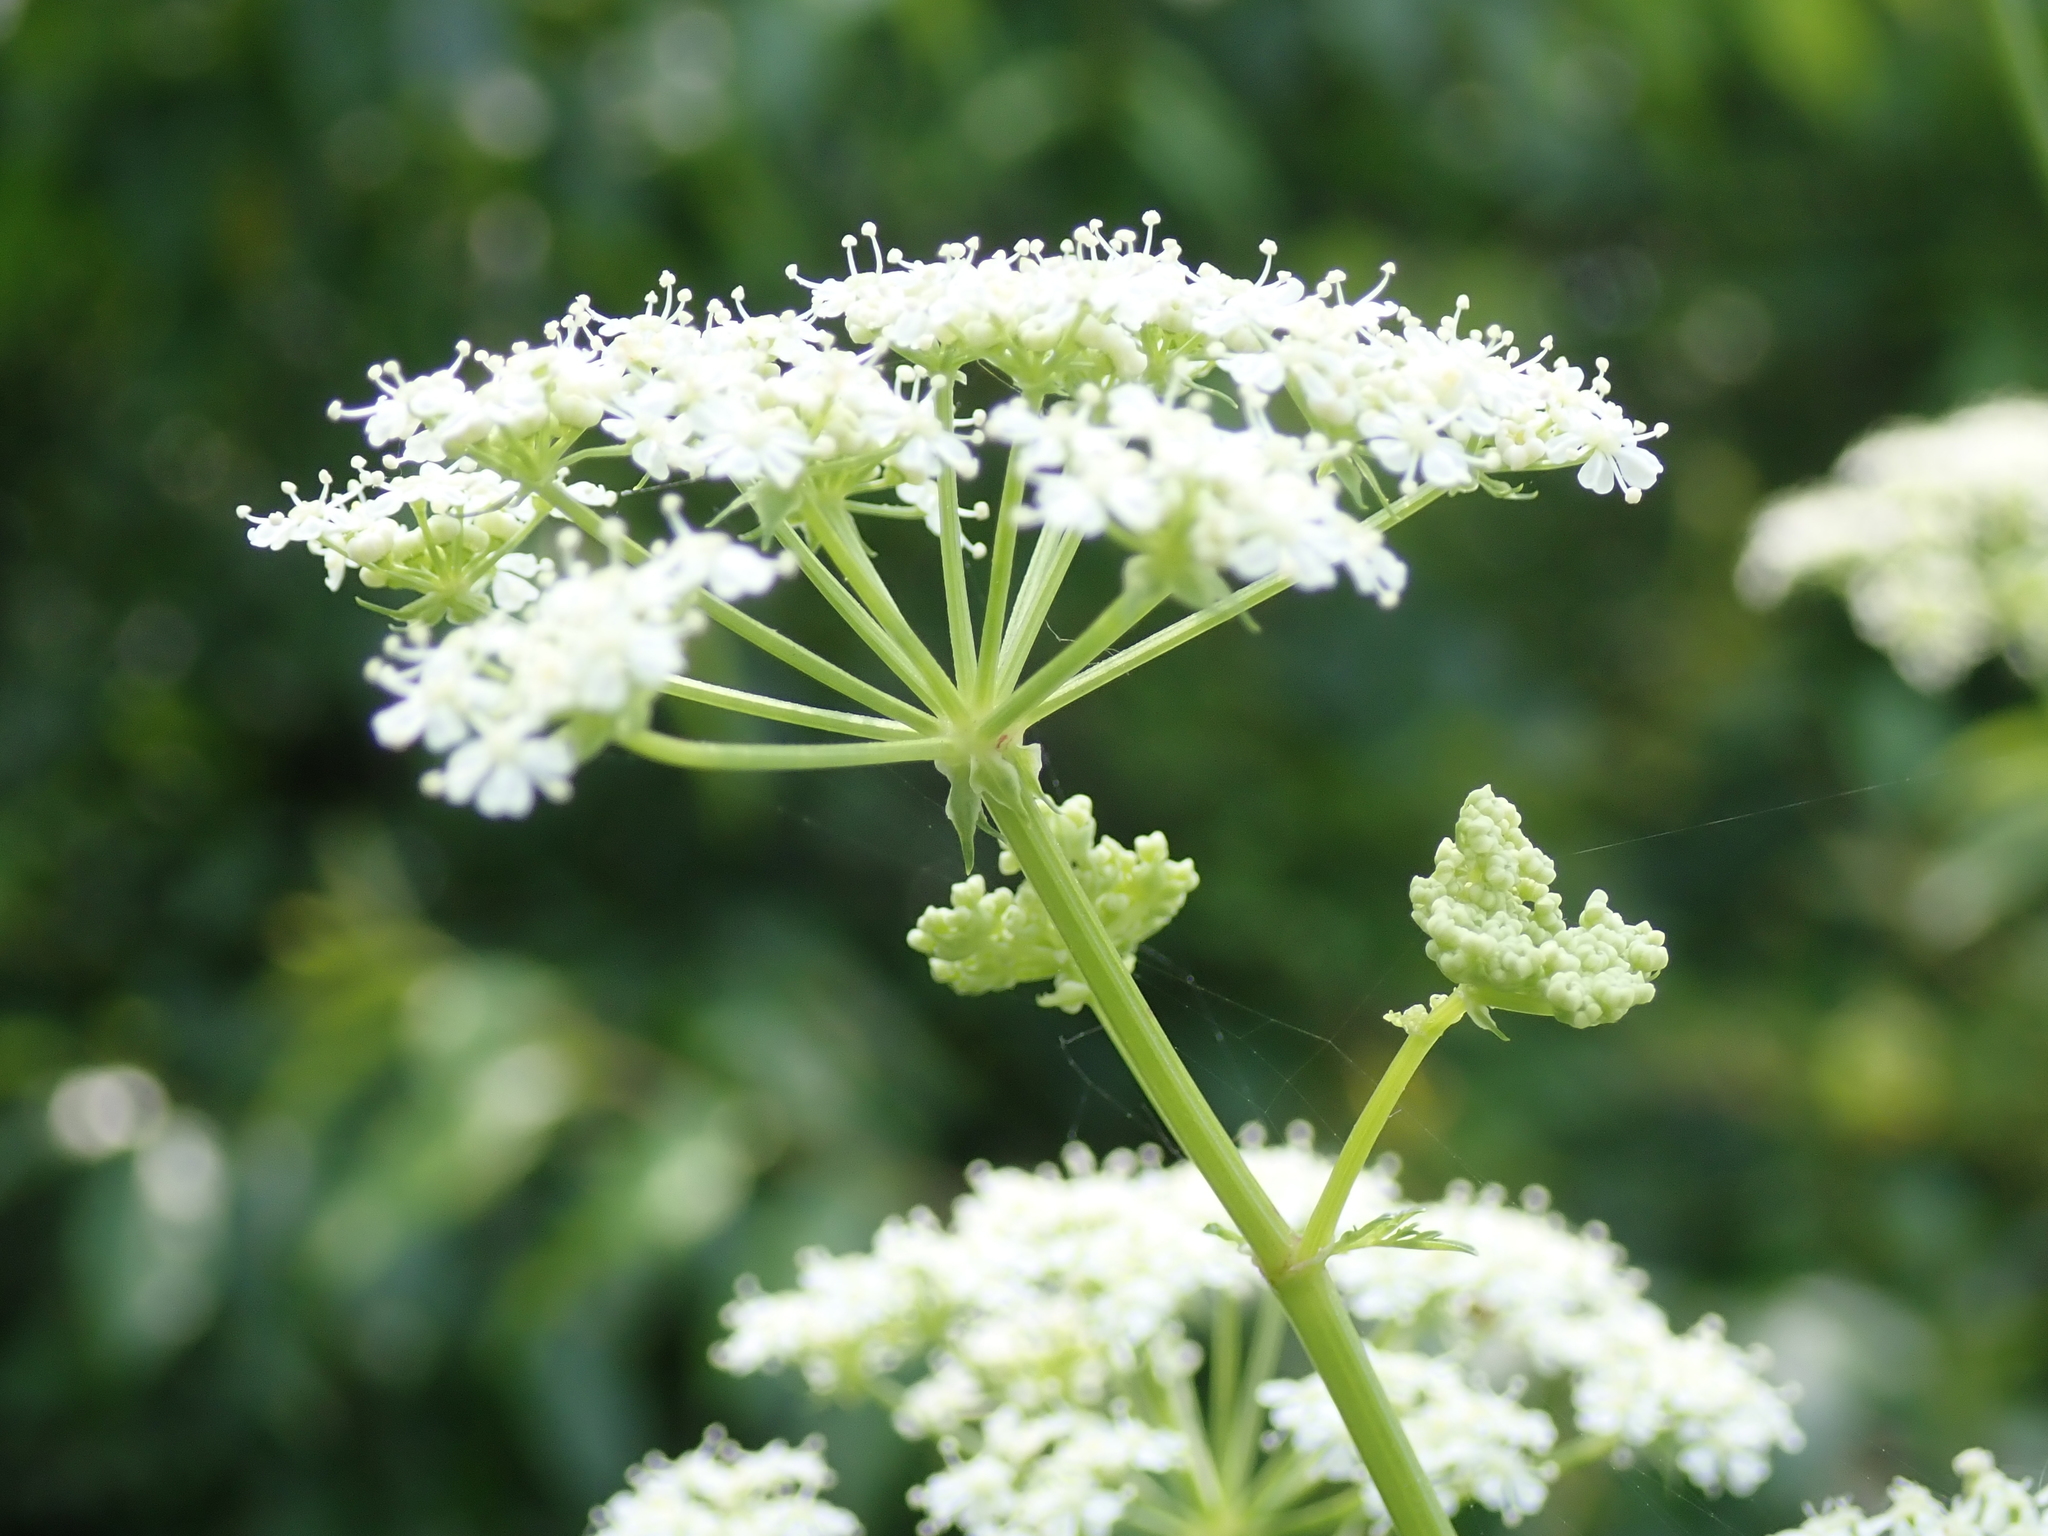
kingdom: Plantae
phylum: Tracheophyta
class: Magnoliopsida
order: Apiales
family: Apiaceae
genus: Conium
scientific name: Conium maculatum
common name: Hemlock
